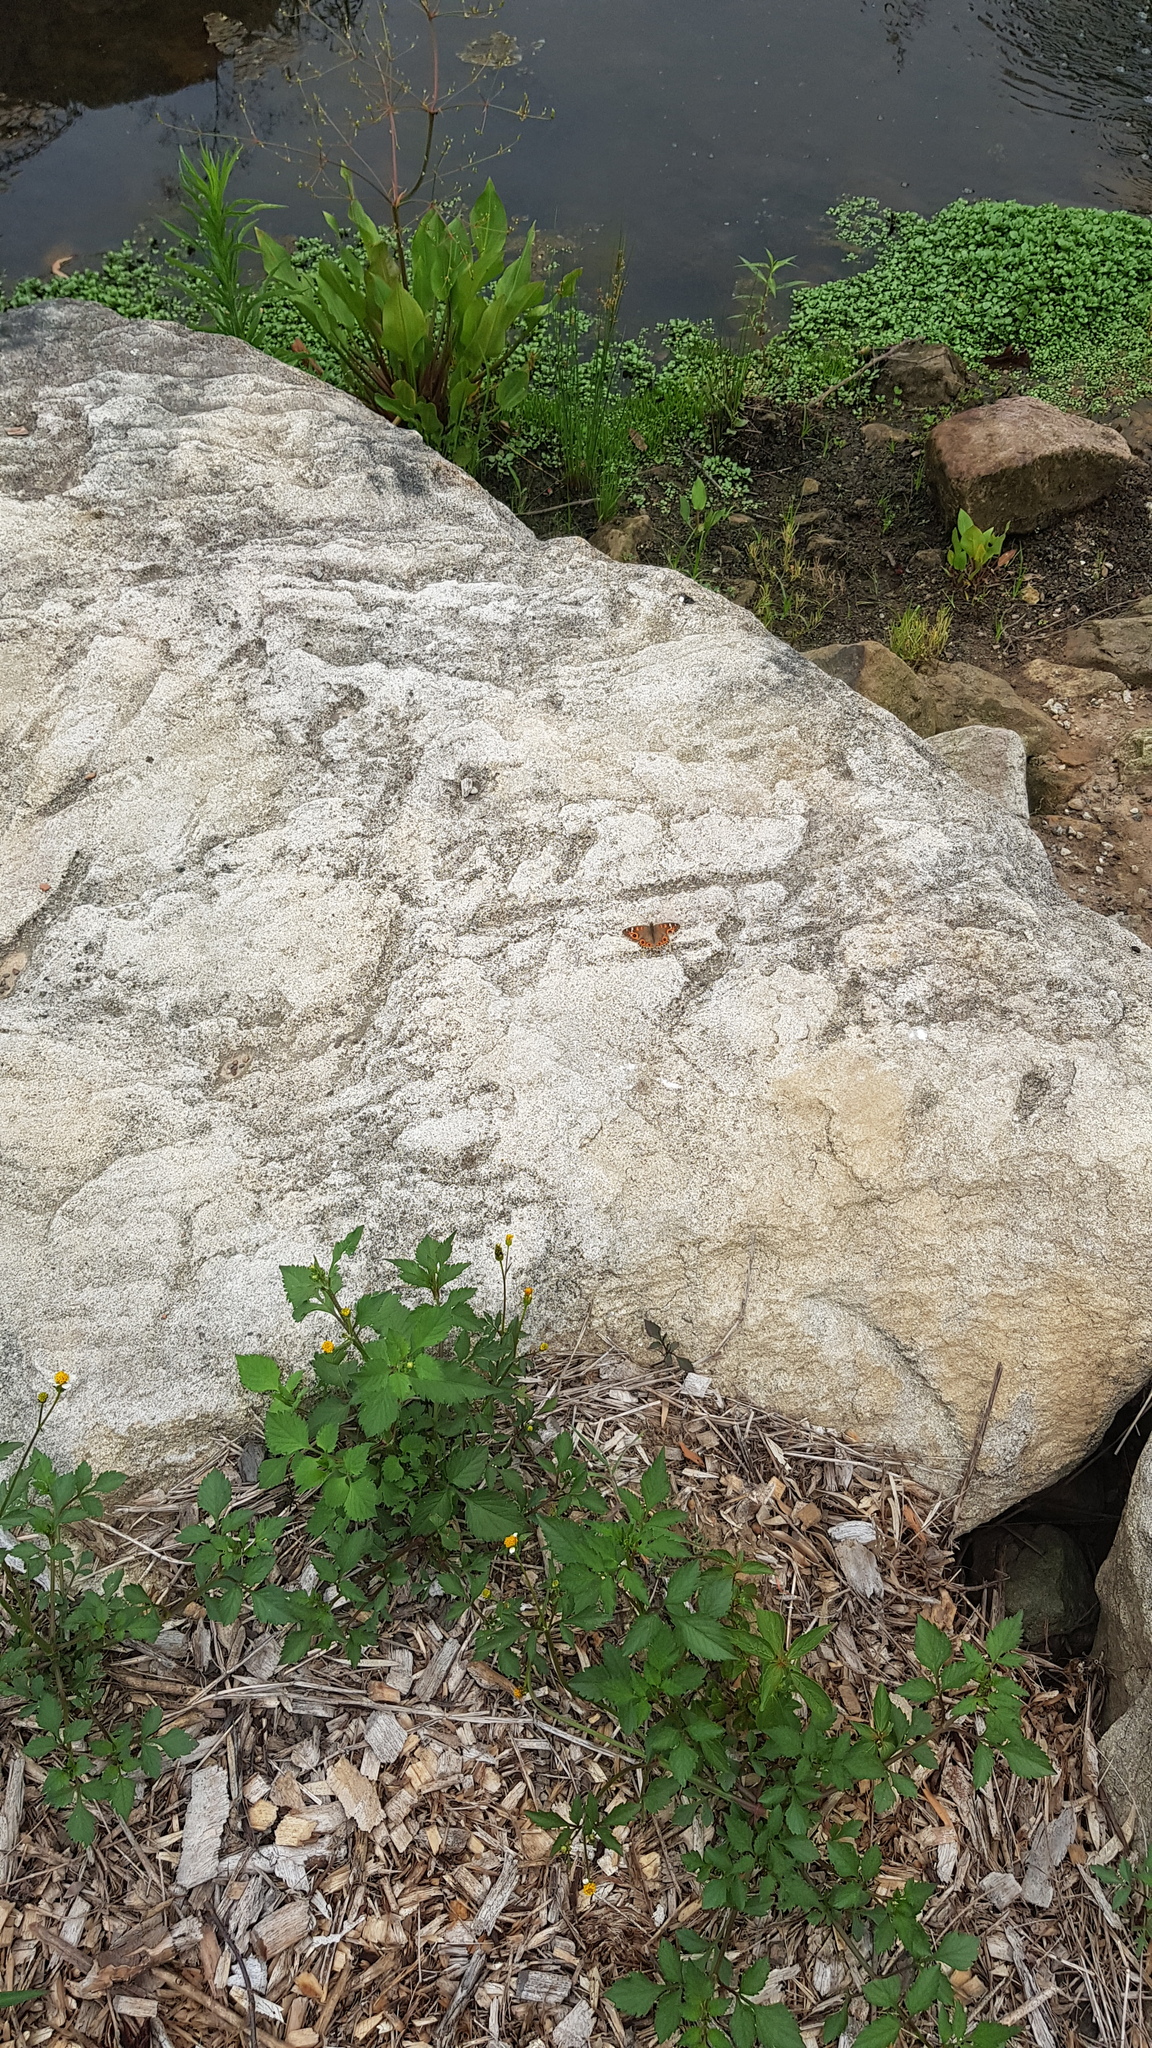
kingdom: Animalia
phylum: Arthropoda
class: Insecta
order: Lepidoptera
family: Nymphalidae
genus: Junonia
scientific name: Junonia villida
